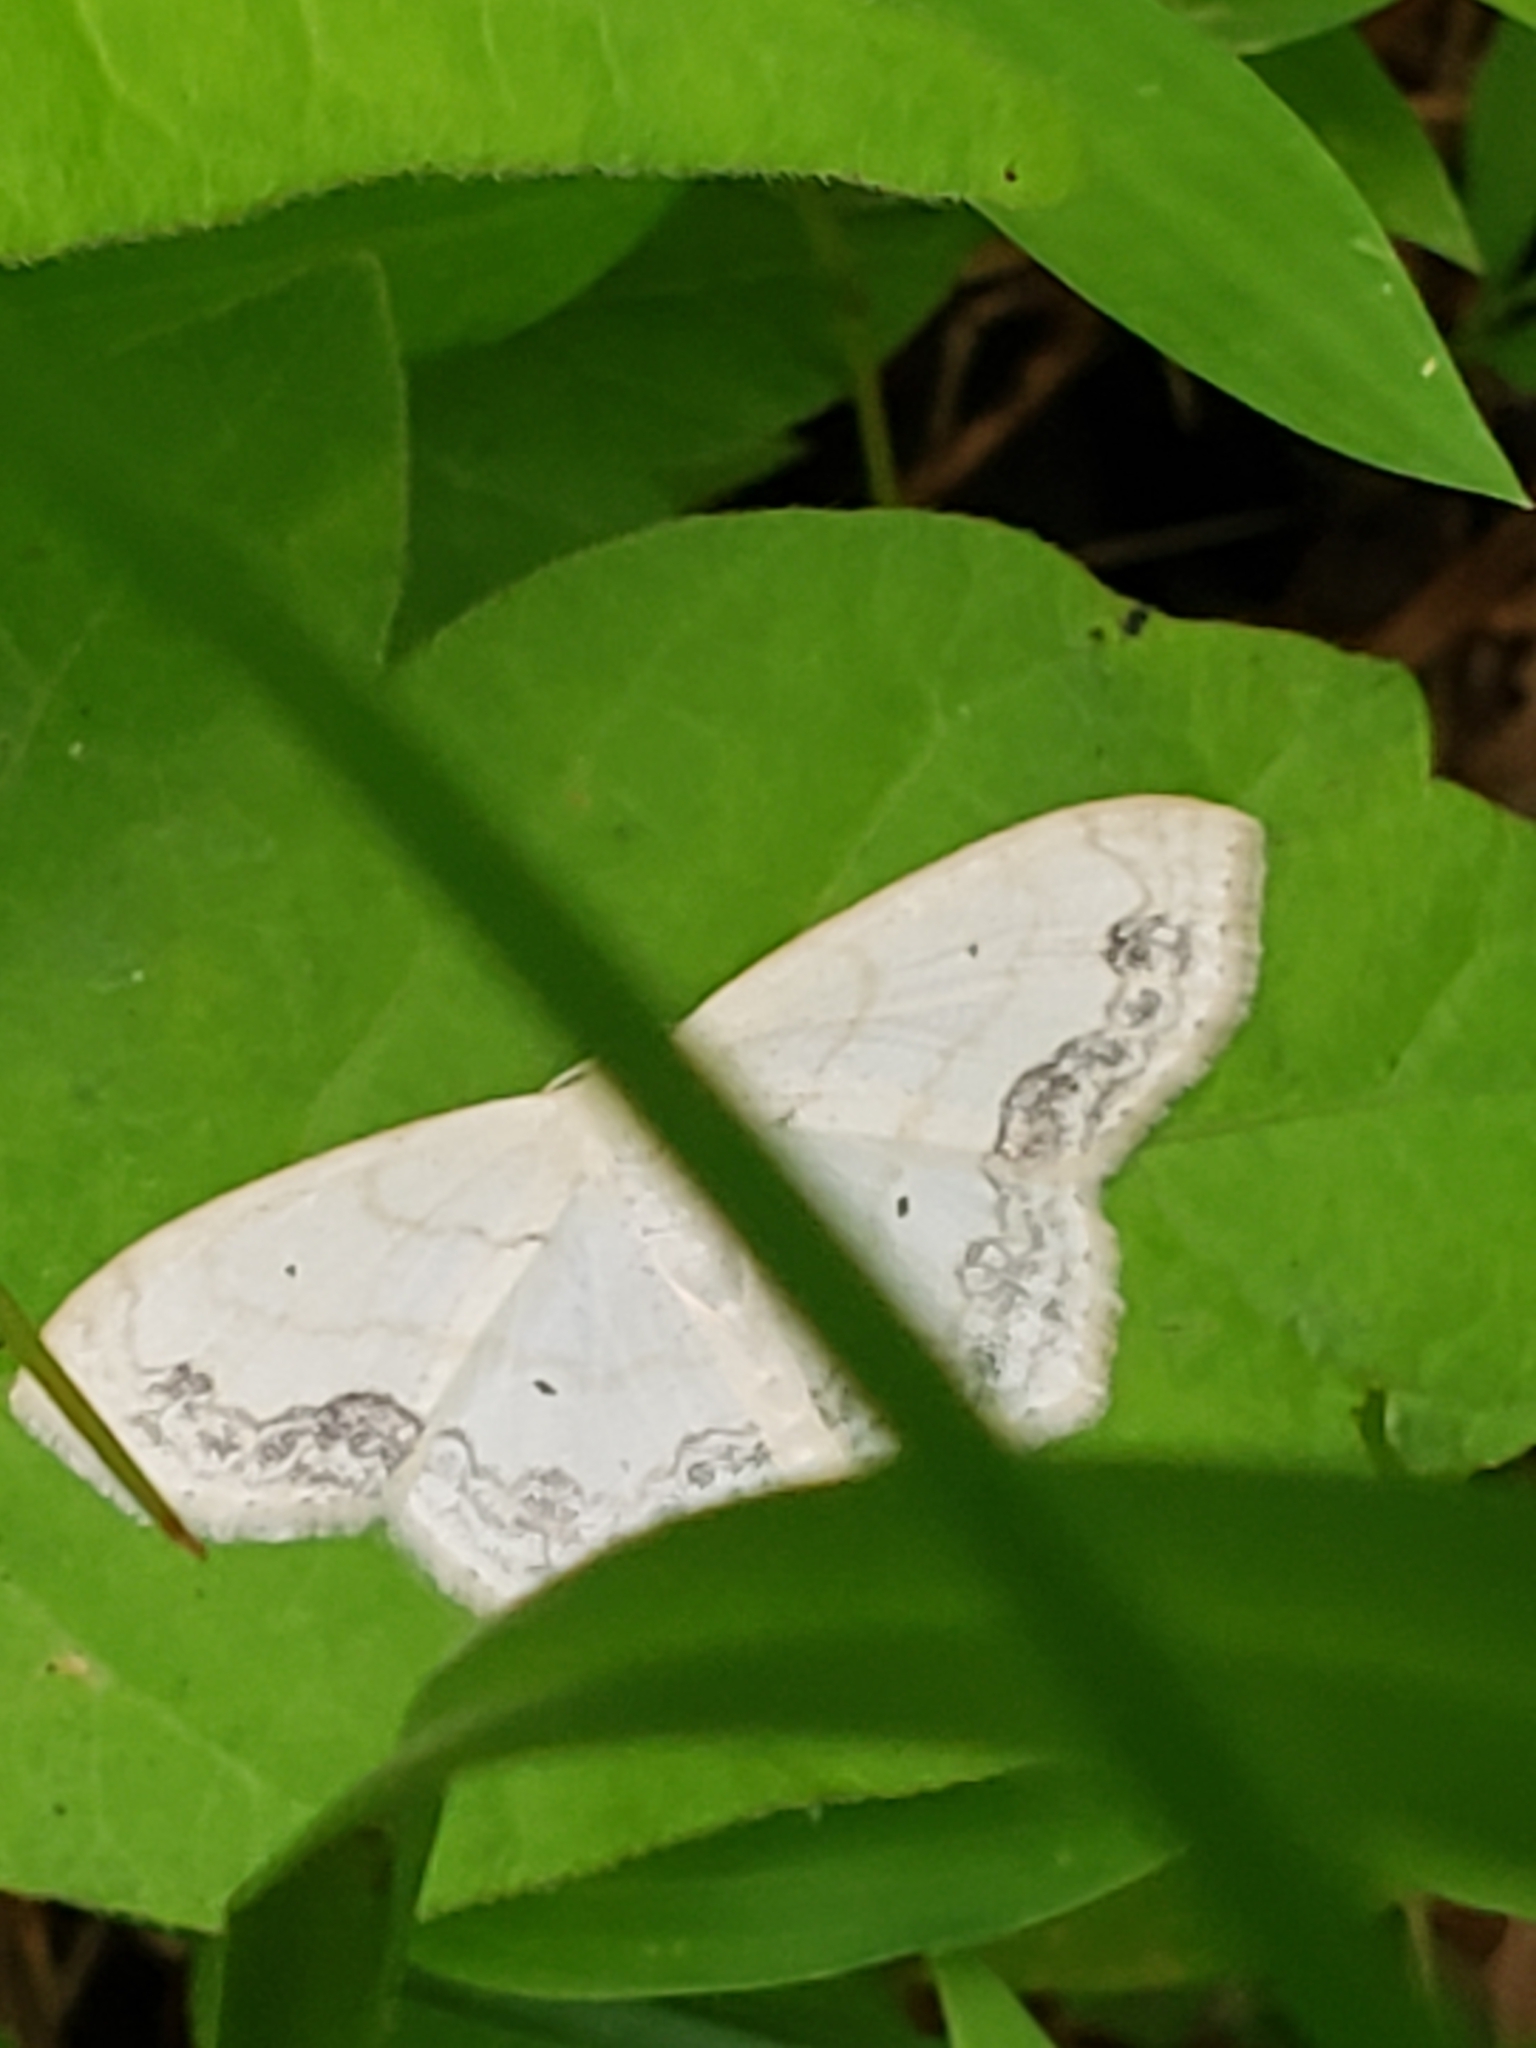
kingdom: Animalia
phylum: Arthropoda
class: Insecta
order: Lepidoptera
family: Geometridae
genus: Scopula
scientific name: Scopula limboundata
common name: Large lace border
